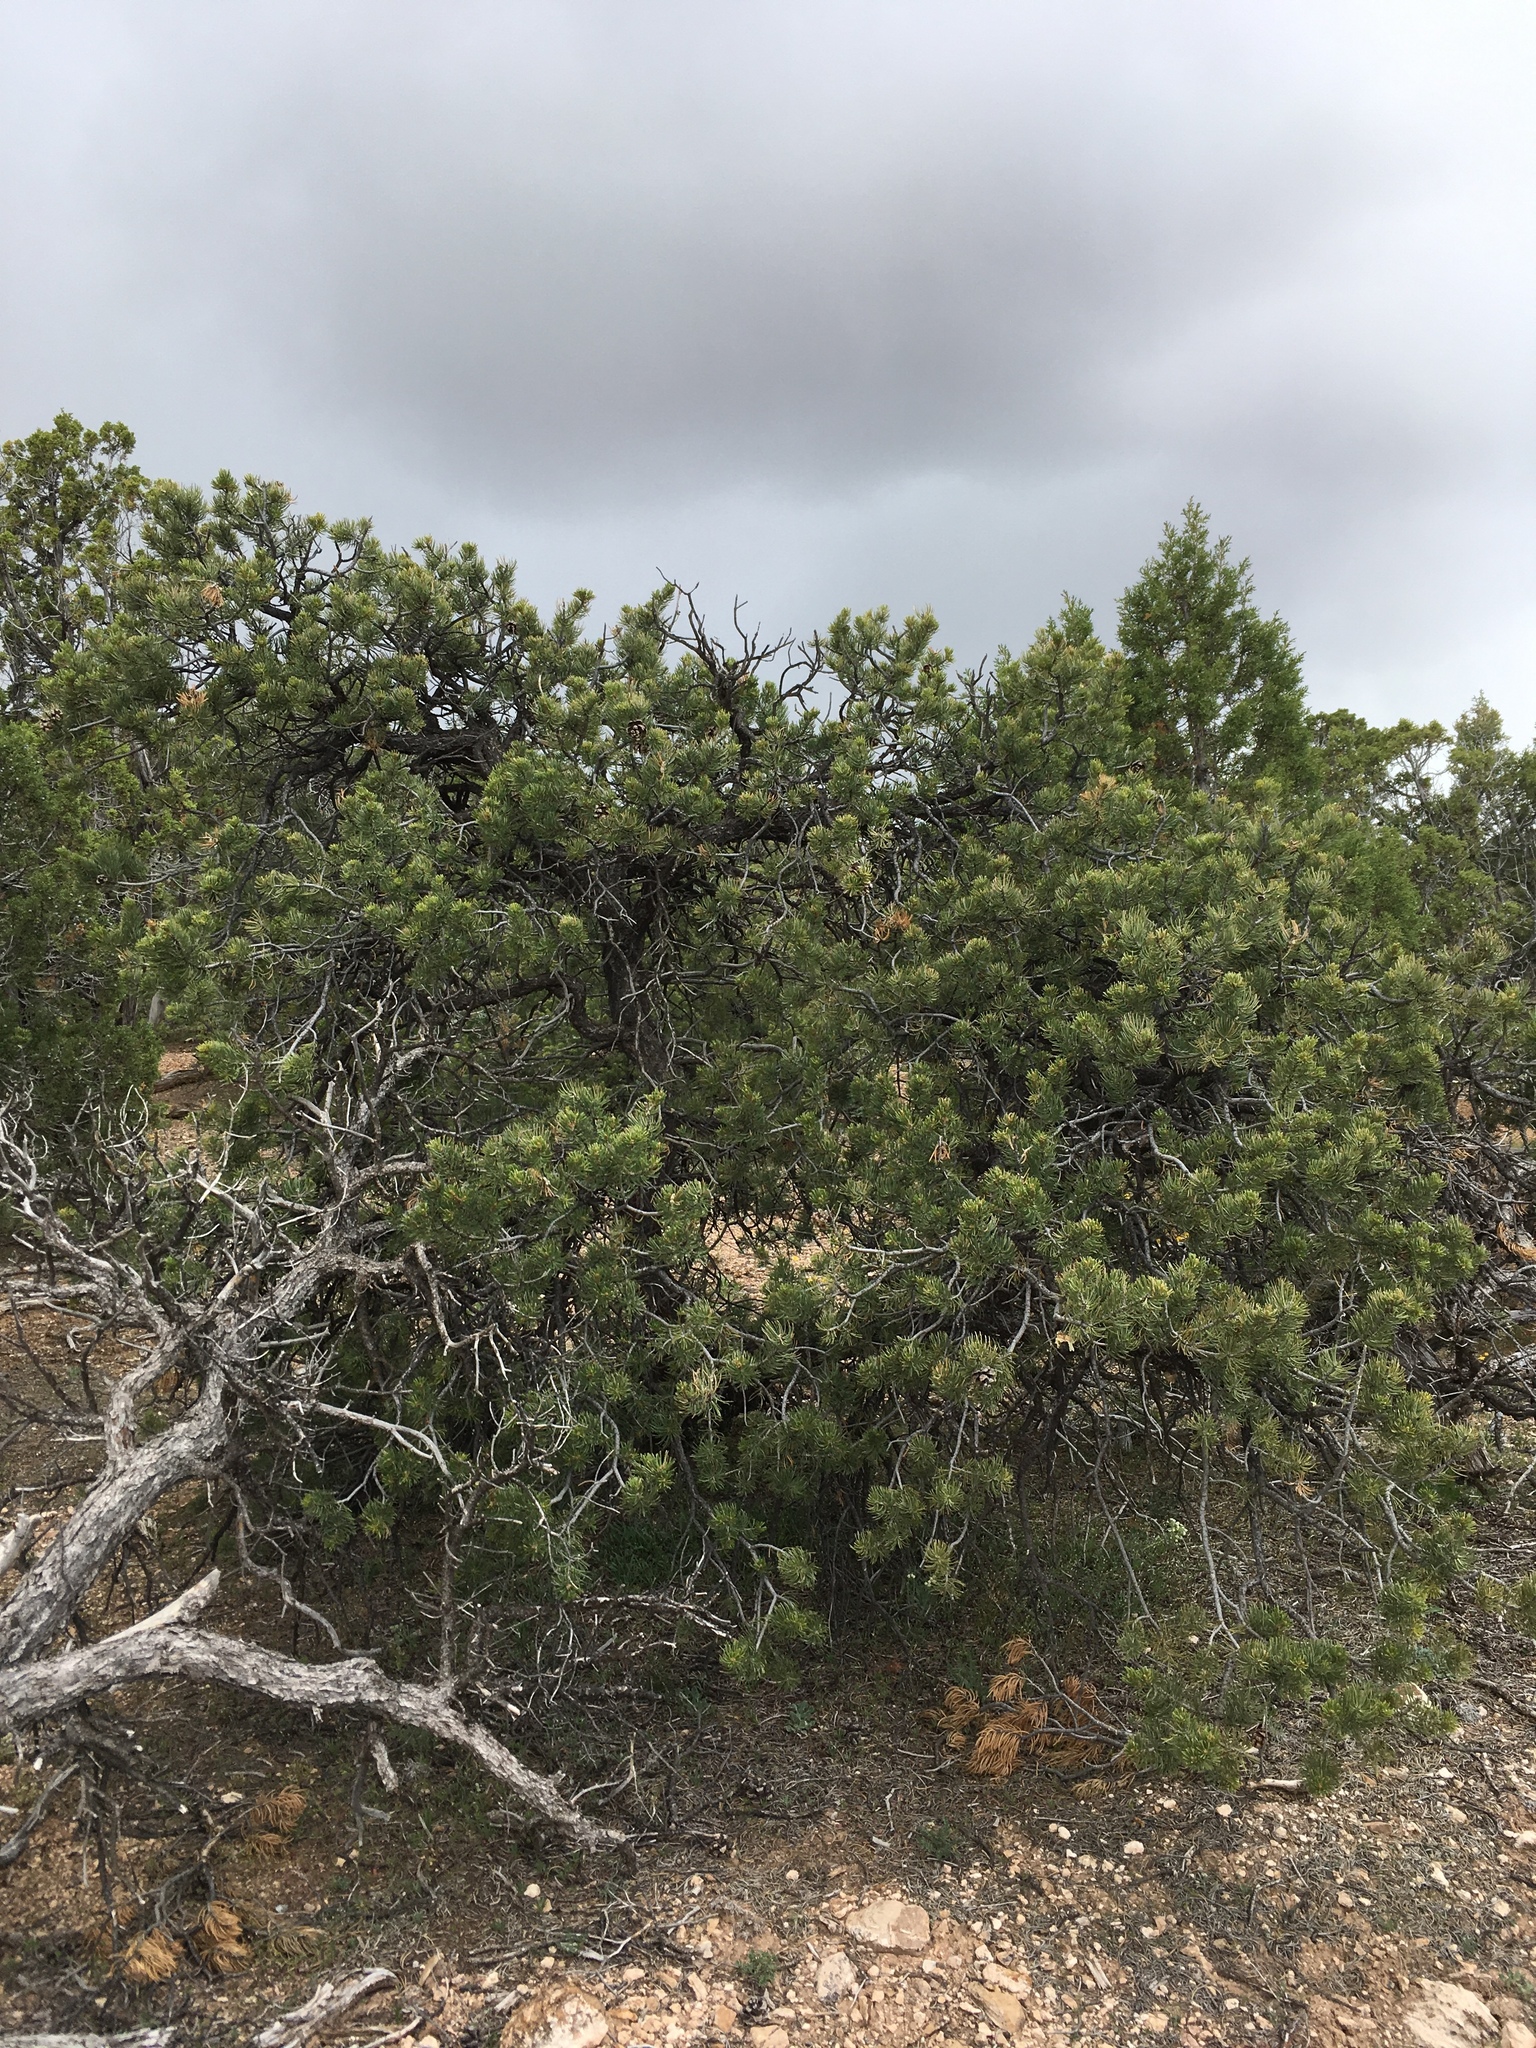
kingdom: Plantae
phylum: Tracheophyta
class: Pinopsida
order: Pinales
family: Pinaceae
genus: Pinus
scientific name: Pinus edulis
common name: Colorado pinyon
